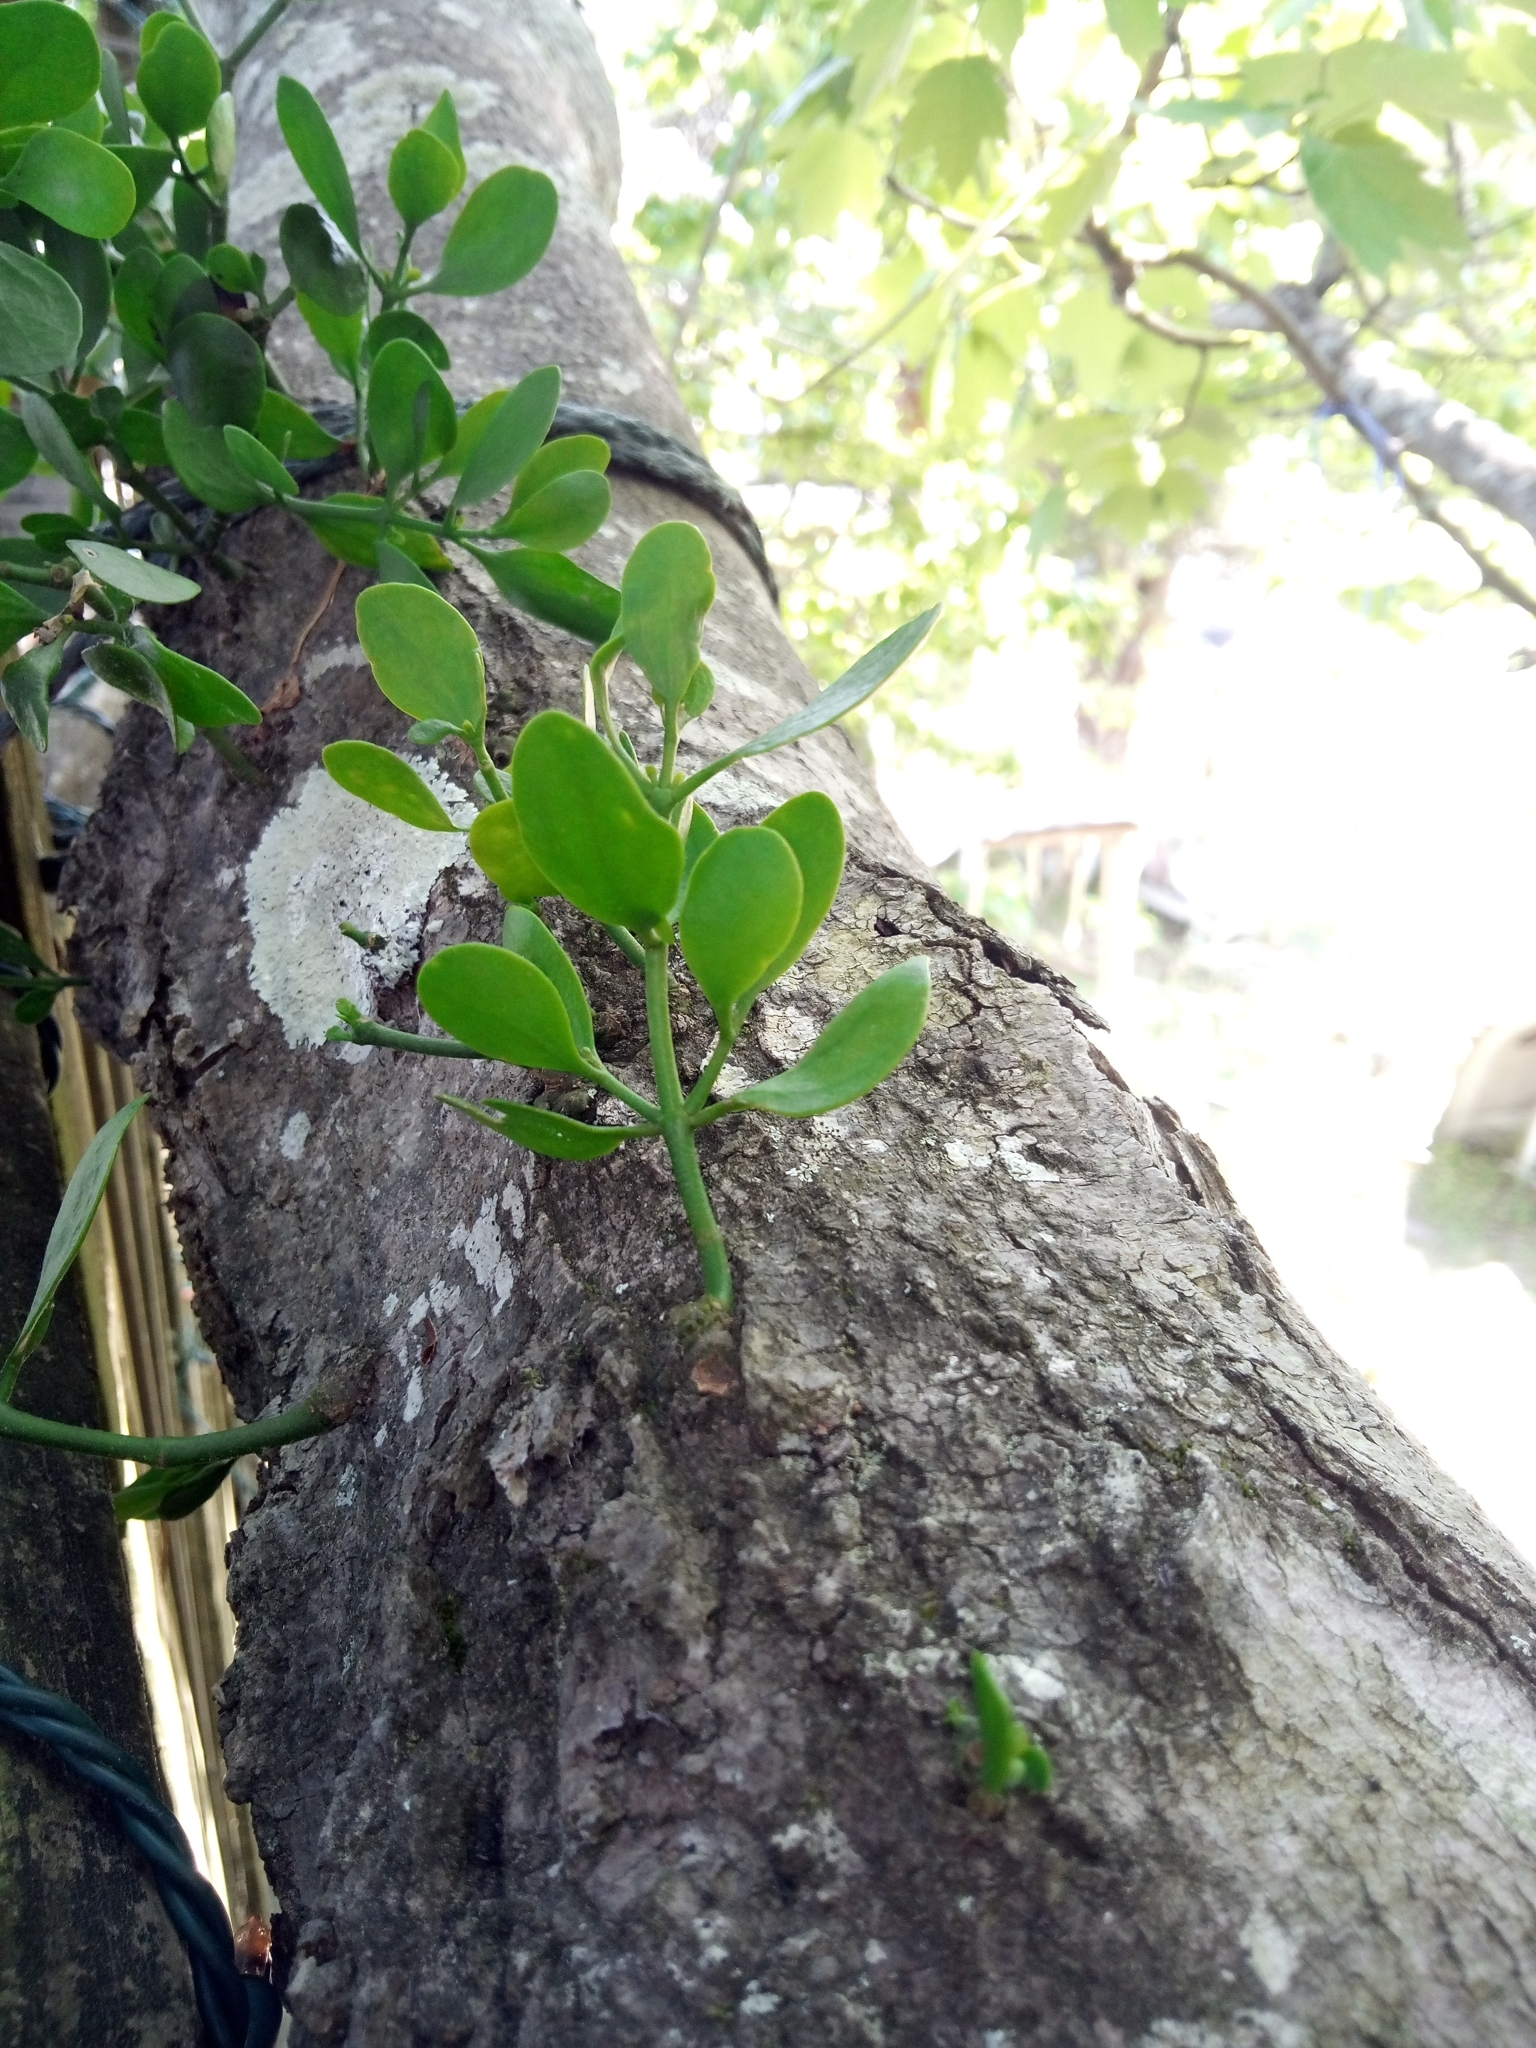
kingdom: Plantae
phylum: Tracheophyta
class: Magnoliopsida
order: Santalales
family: Viscaceae
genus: Phoradendron
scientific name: Phoradendron leucarpum
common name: Pacific mistletoe
